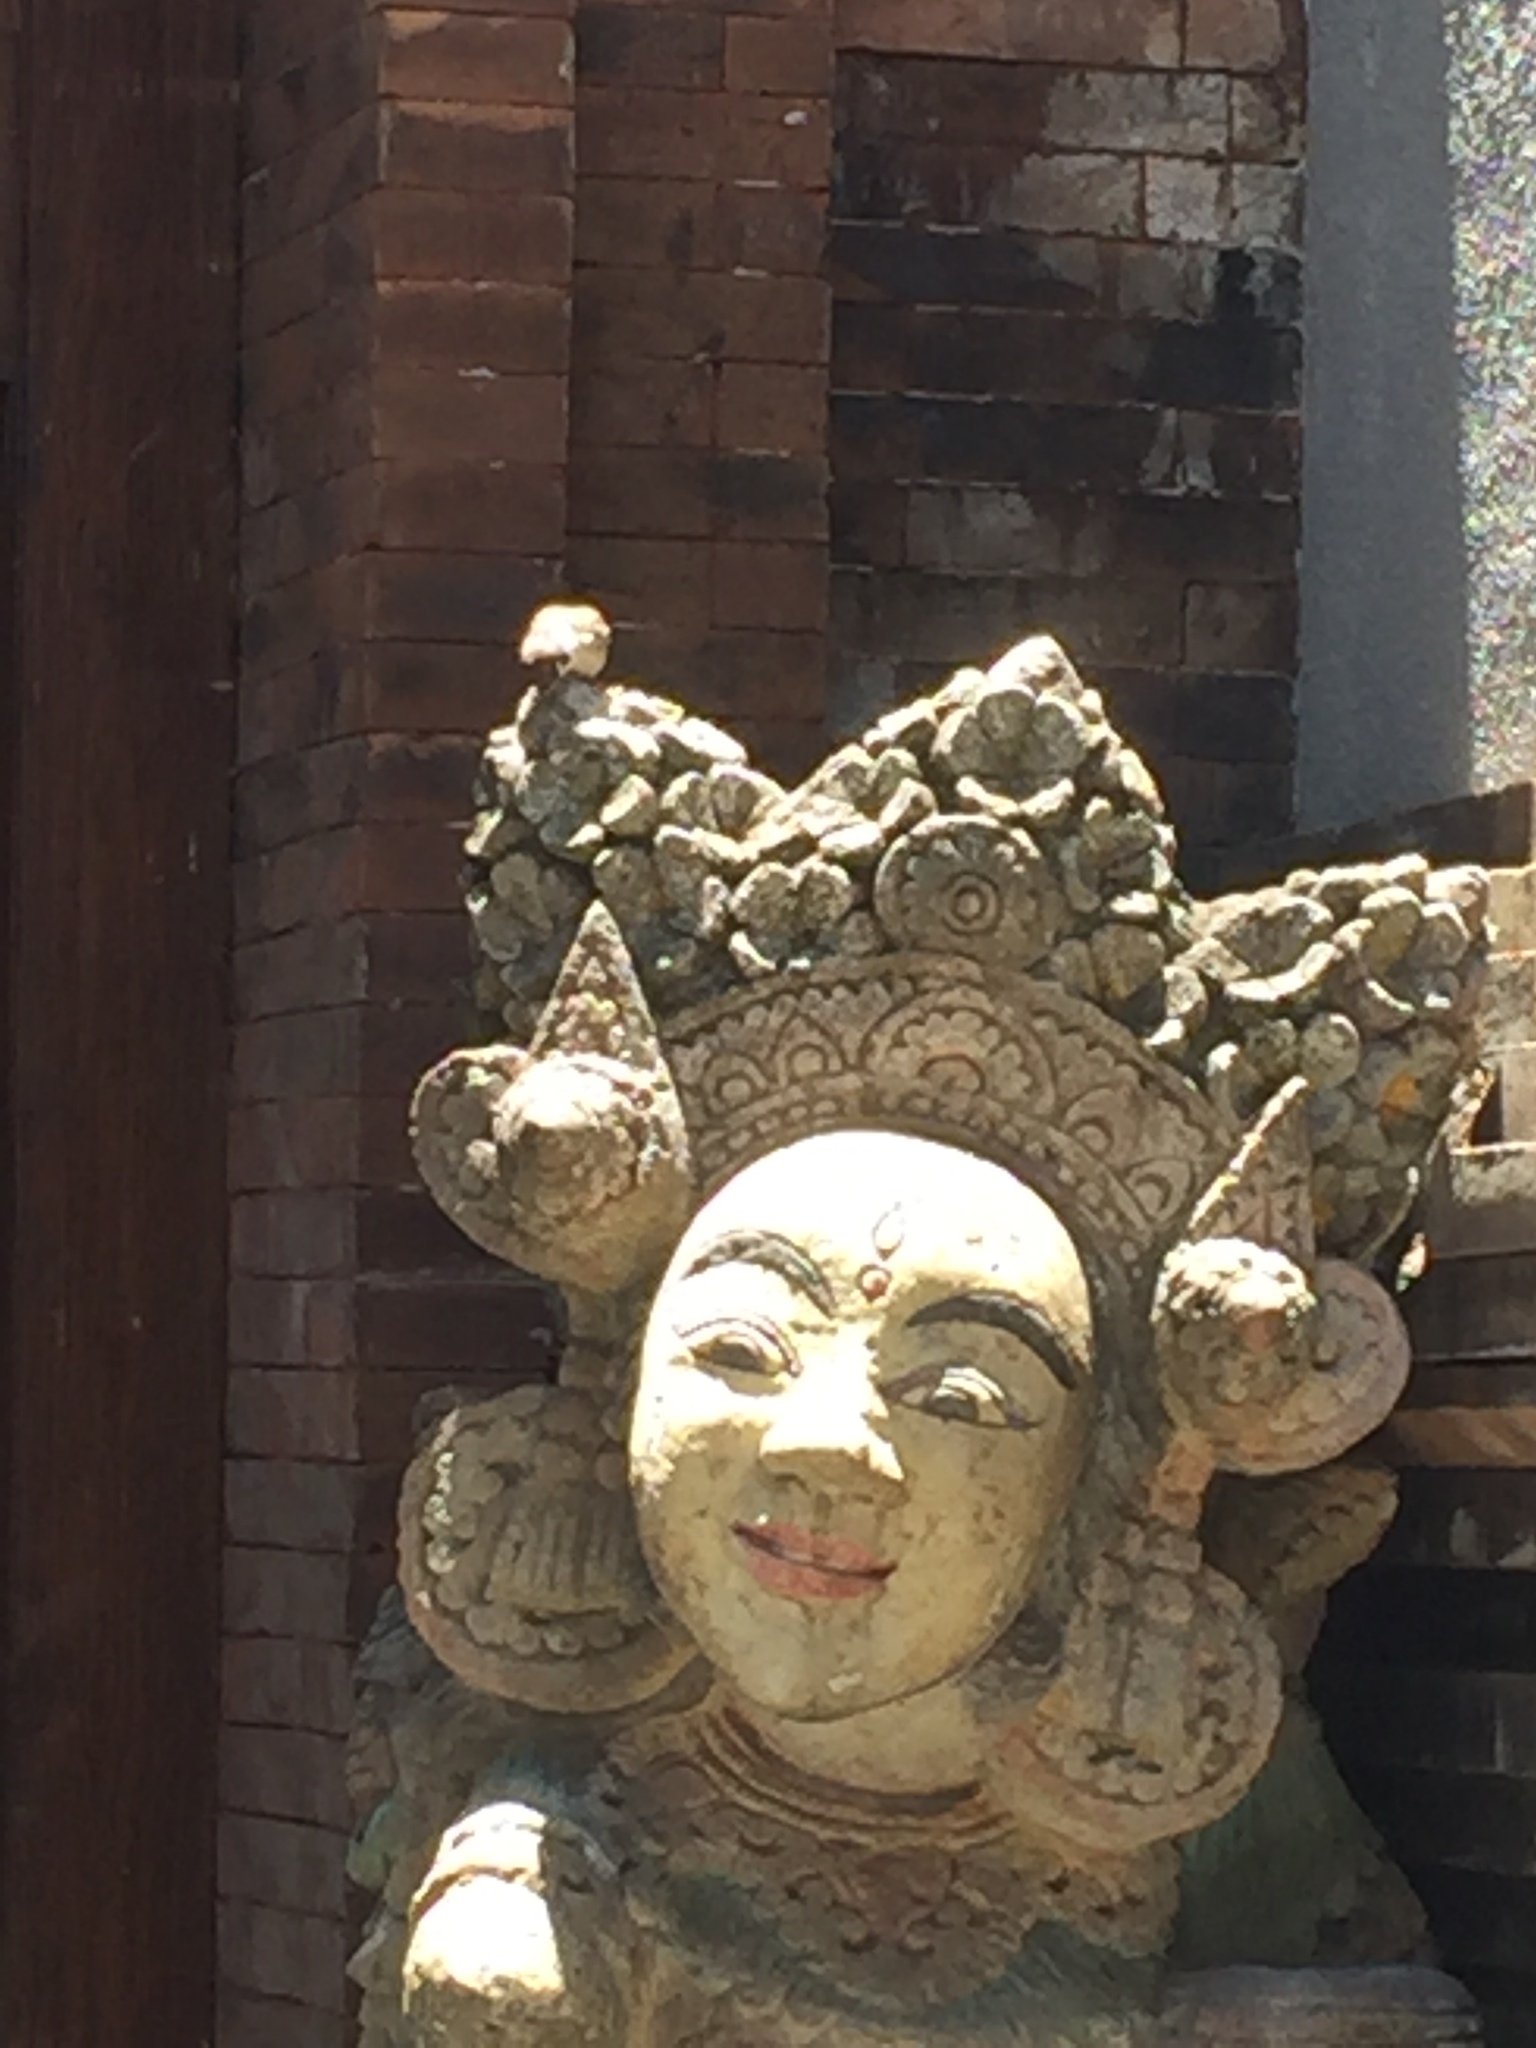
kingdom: Animalia
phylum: Chordata
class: Aves
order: Passeriformes
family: Passeridae
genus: Passer
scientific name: Passer montanus
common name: Eurasian tree sparrow
